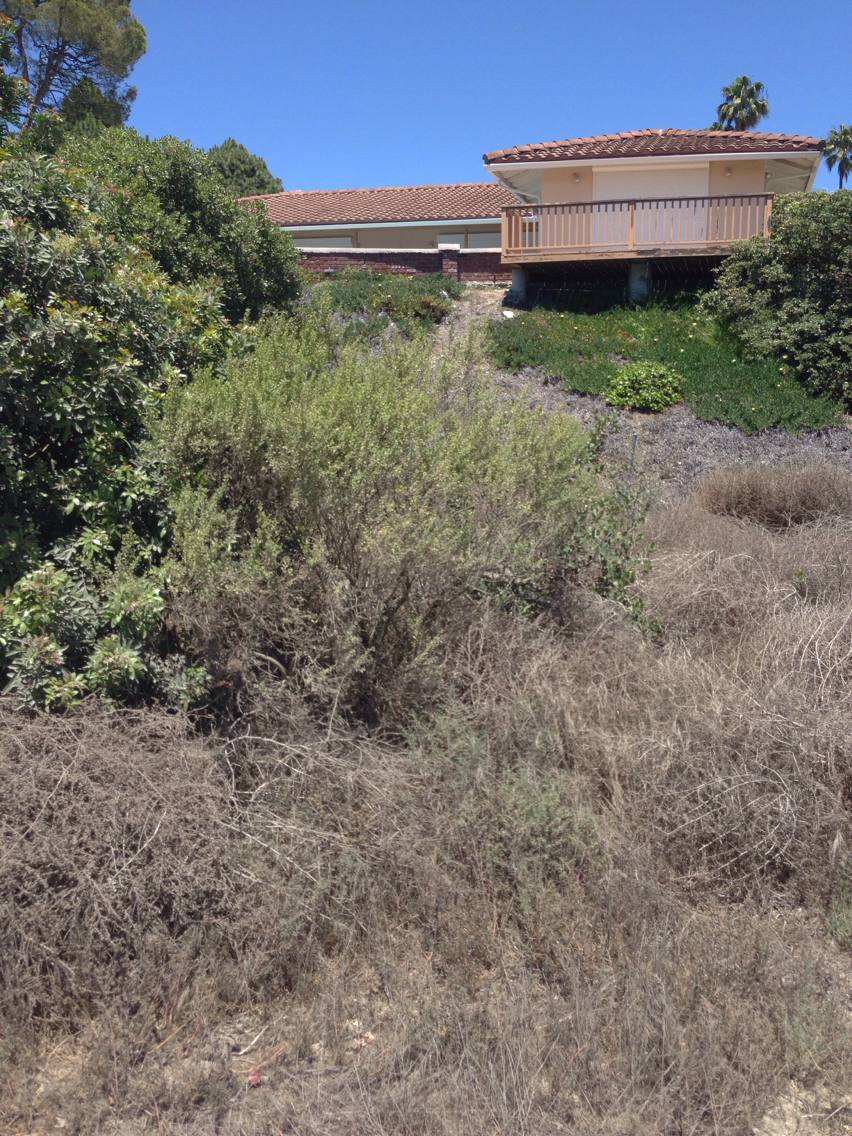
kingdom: Plantae
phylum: Tracheophyta
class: Magnoliopsida
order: Asterales
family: Asteraceae
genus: Baccharis
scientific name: Baccharis pilularis
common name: Coyotebrush
